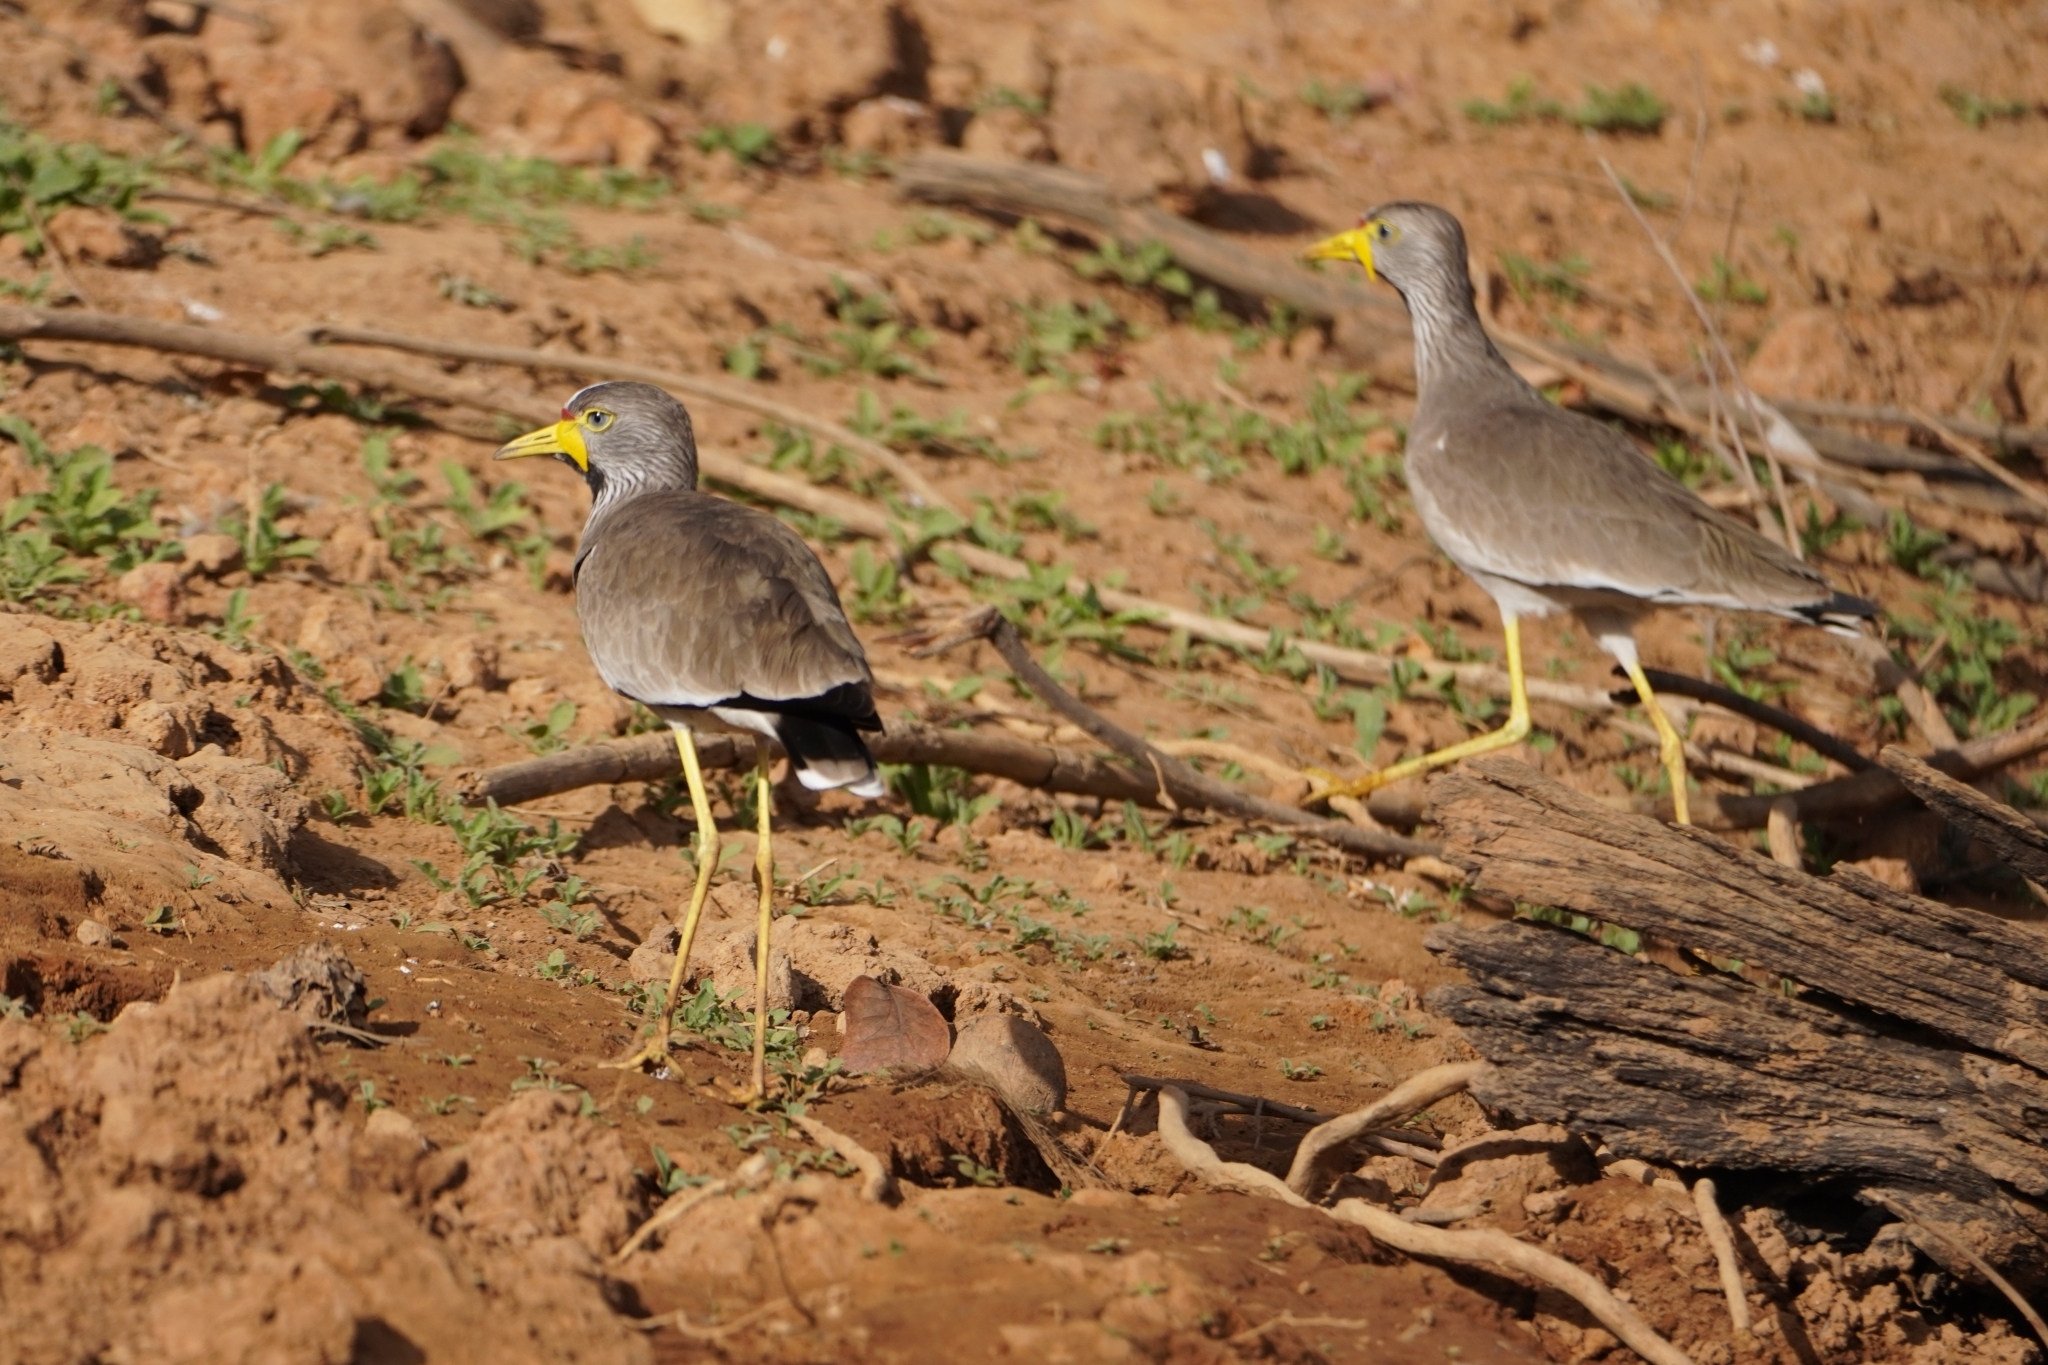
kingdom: Animalia
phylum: Chordata
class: Aves
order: Charadriiformes
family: Charadriidae
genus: Vanellus
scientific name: Vanellus senegallus
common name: African wattled lapwing
